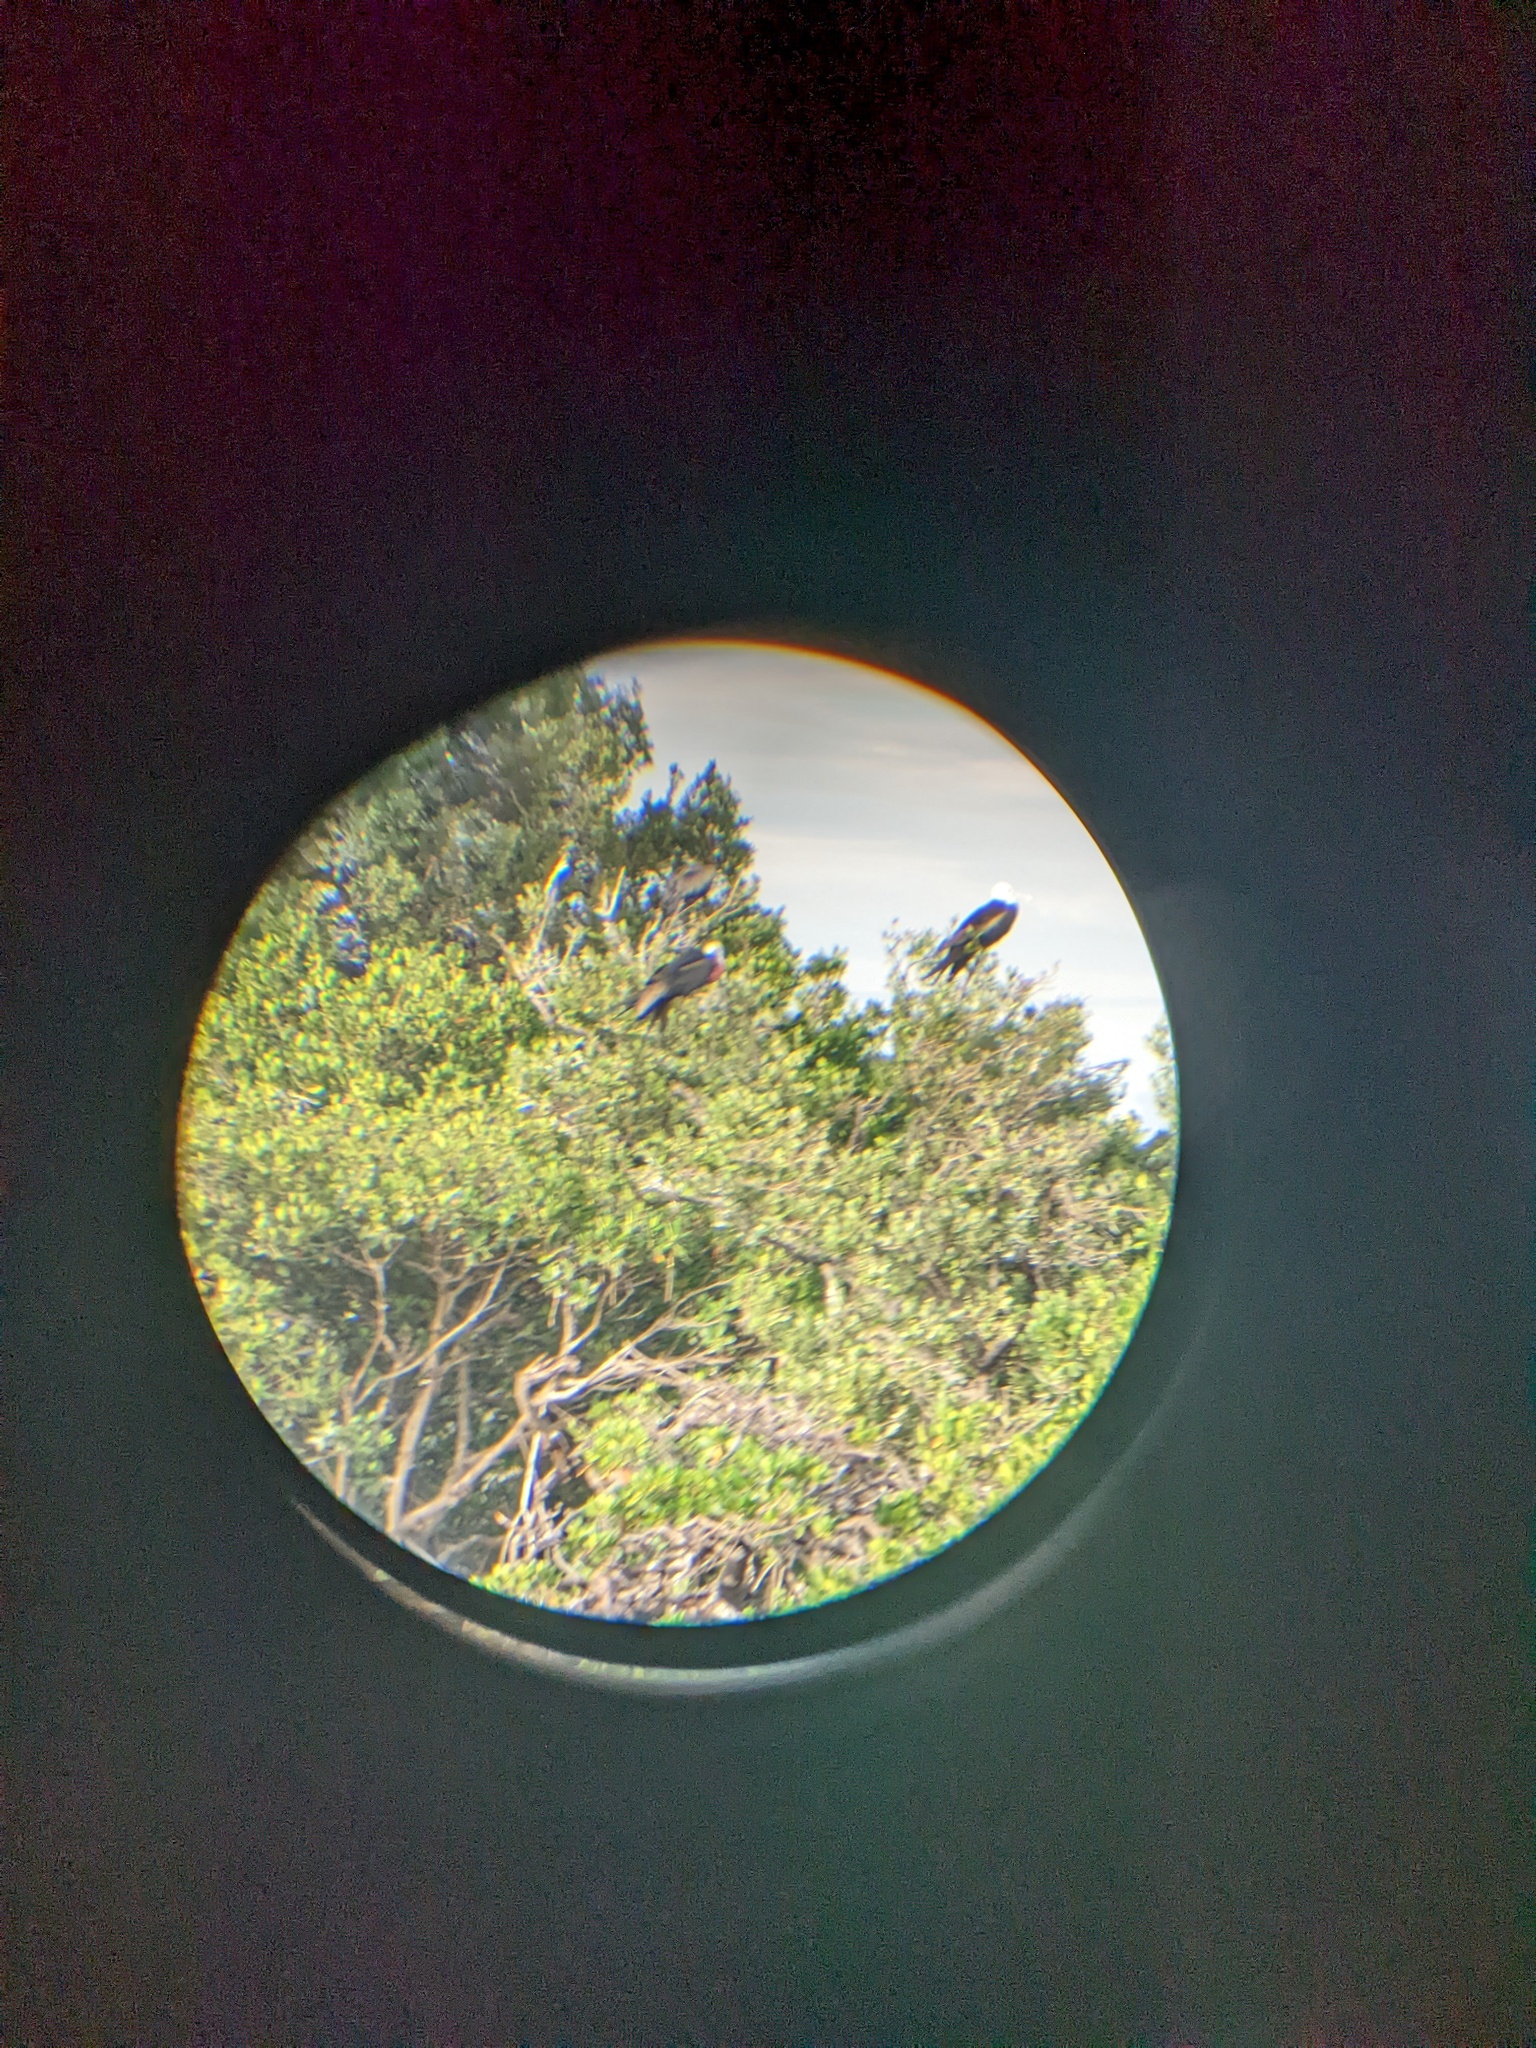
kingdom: Animalia
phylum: Chordata
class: Aves
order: Suliformes
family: Fregatidae
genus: Fregata
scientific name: Fregata magnificens
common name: Magnificent frigatebird
